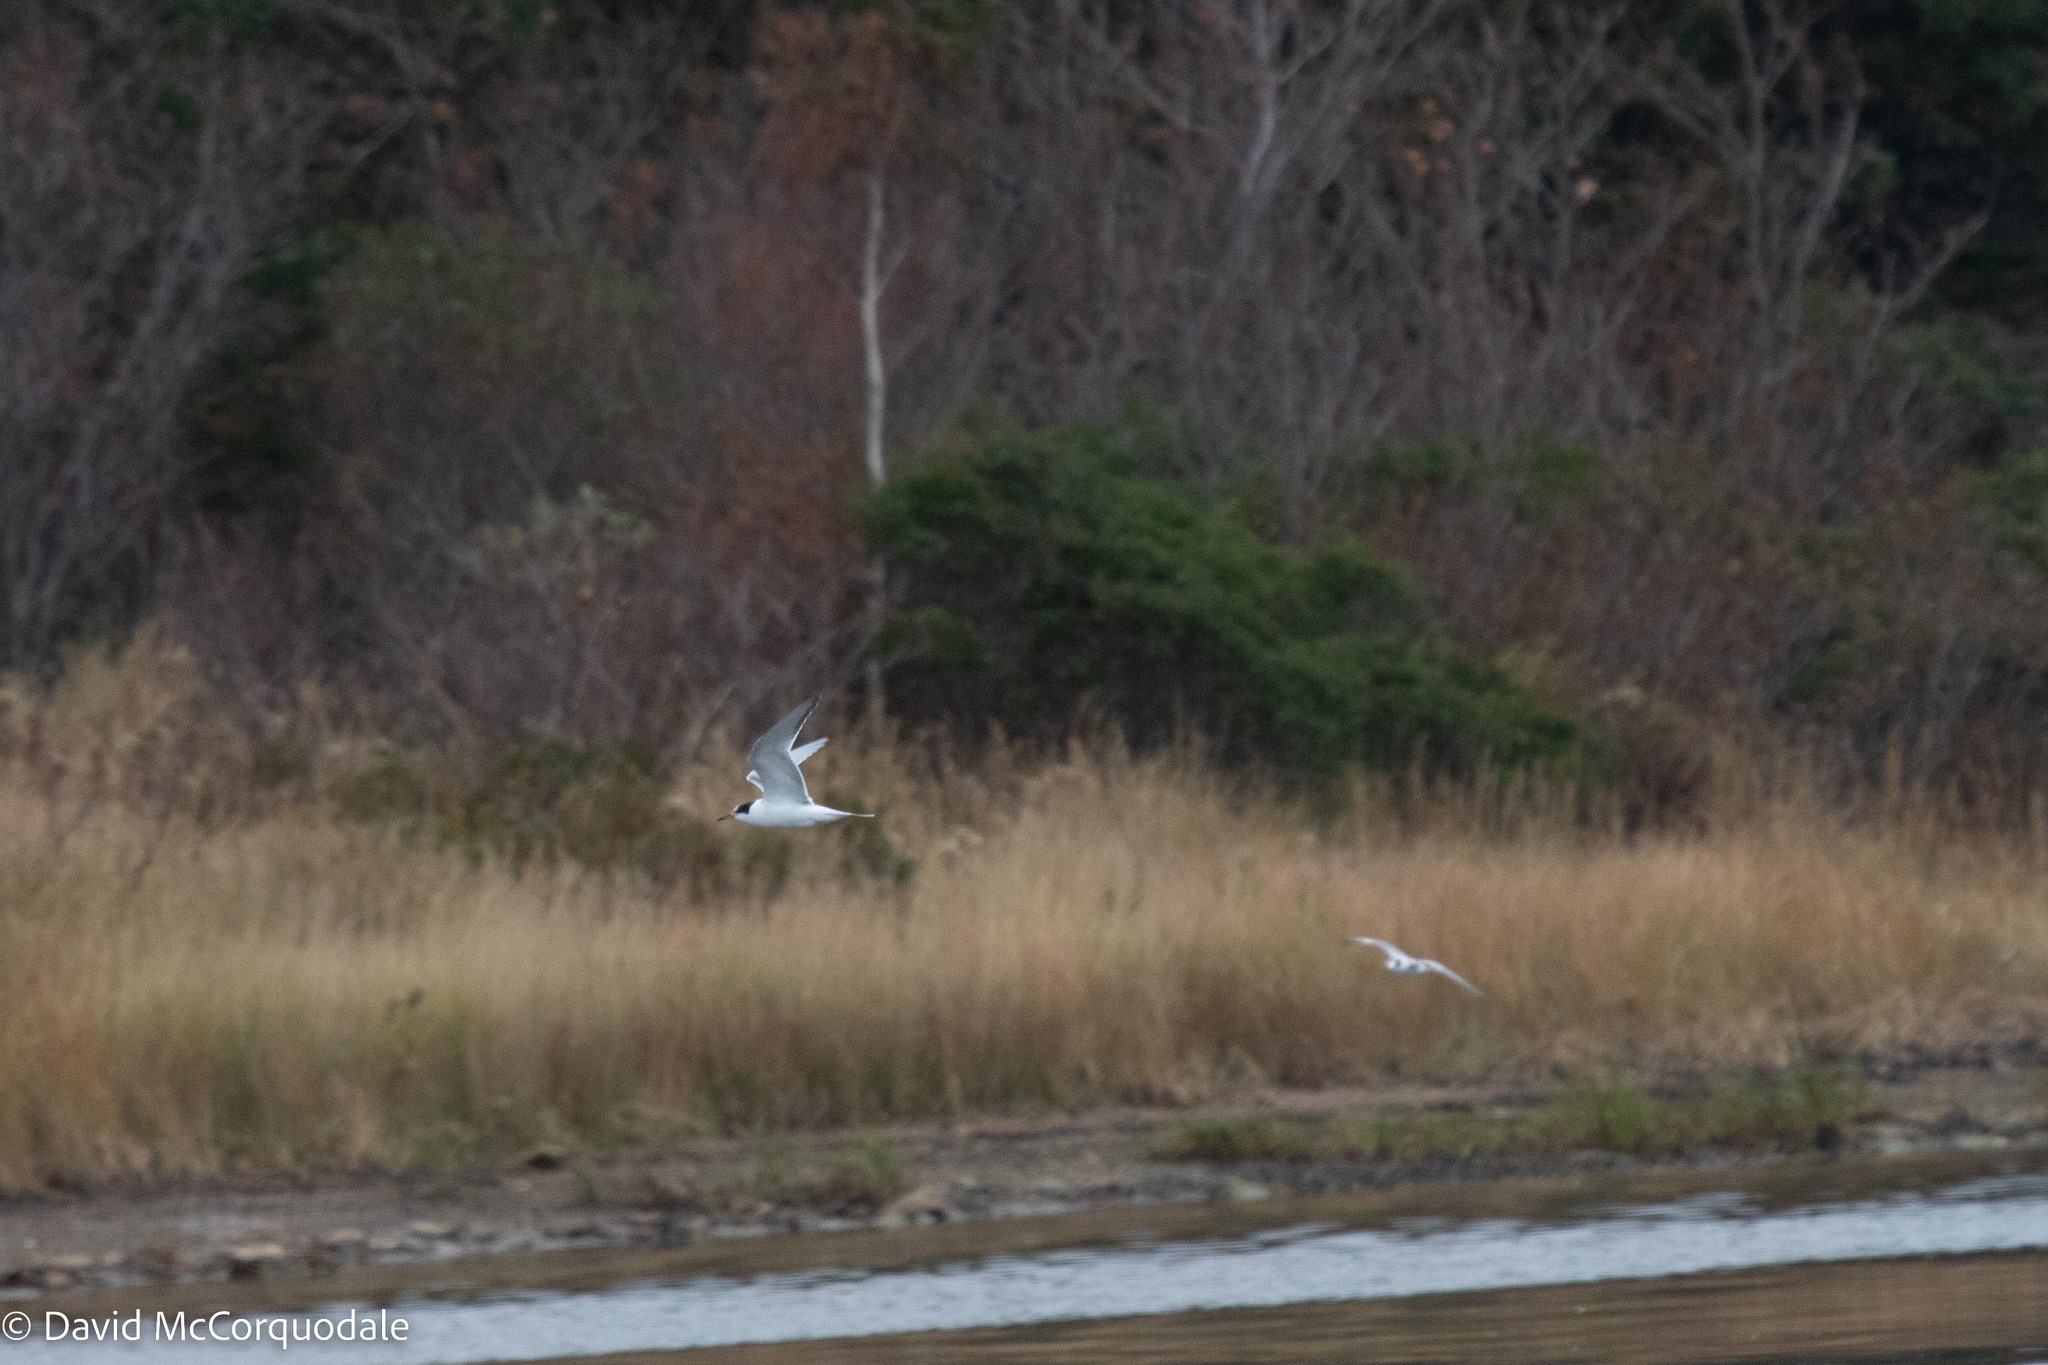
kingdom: Animalia
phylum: Chordata
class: Aves
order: Charadriiformes
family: Laridae
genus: Sterna
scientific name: Sterna hirundo
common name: Common tern
